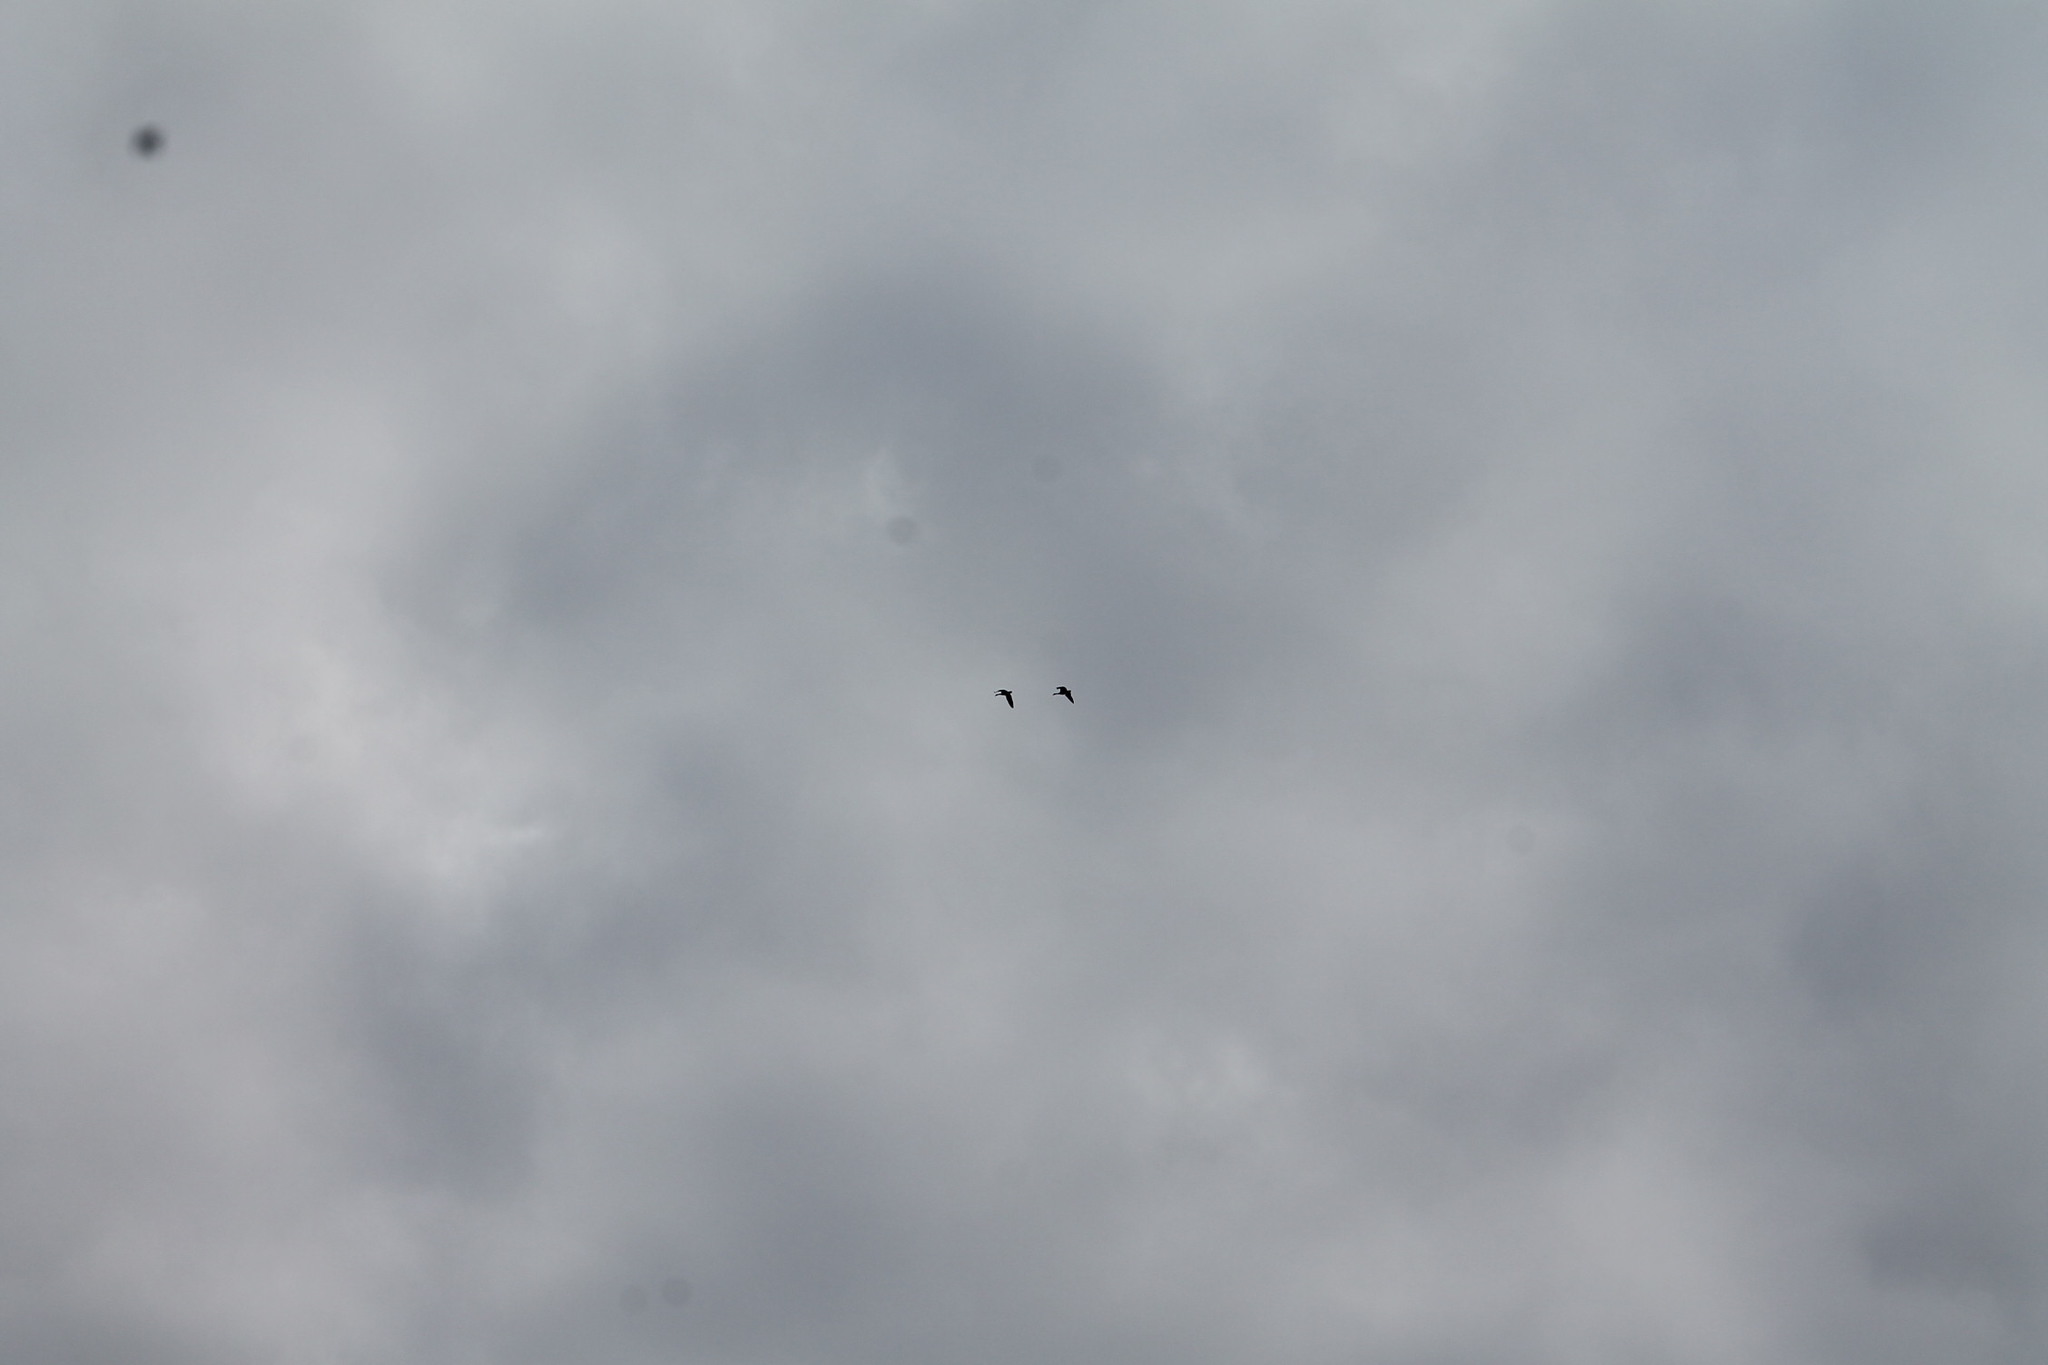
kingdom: Animalia
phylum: Chordata
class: Aves
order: Anseriformes
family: Anatidae
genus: Branta
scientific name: Branta canadensis
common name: Canada goose
